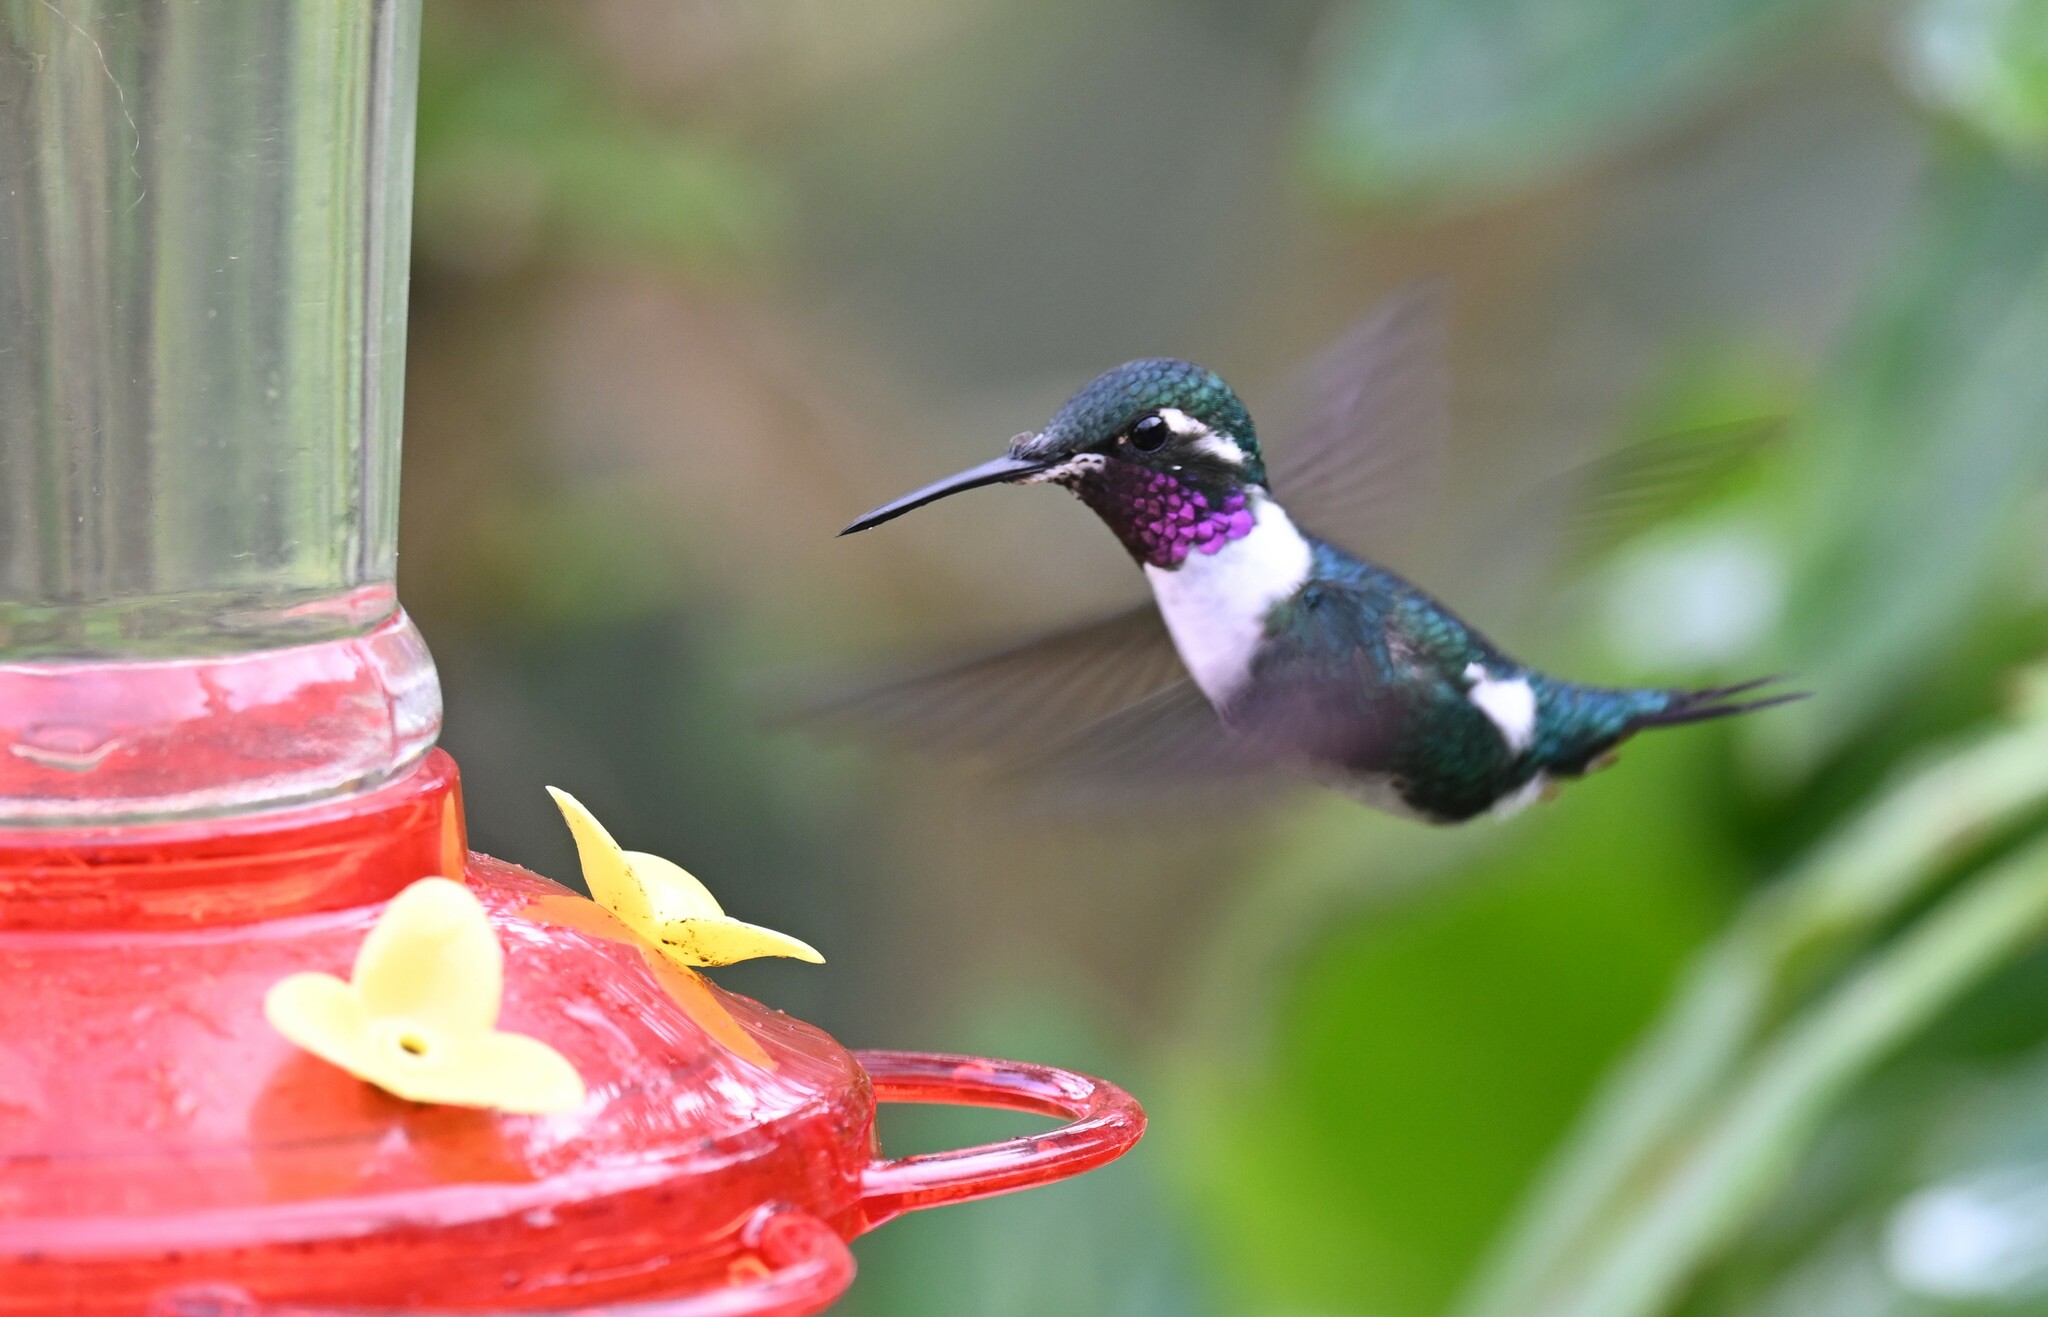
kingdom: Animalia
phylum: Chordata
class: Aves
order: Apodiformes
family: Trochilidae
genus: Chaetocercus
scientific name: Chaetocercus mulsant
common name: White-bellied woodstar
